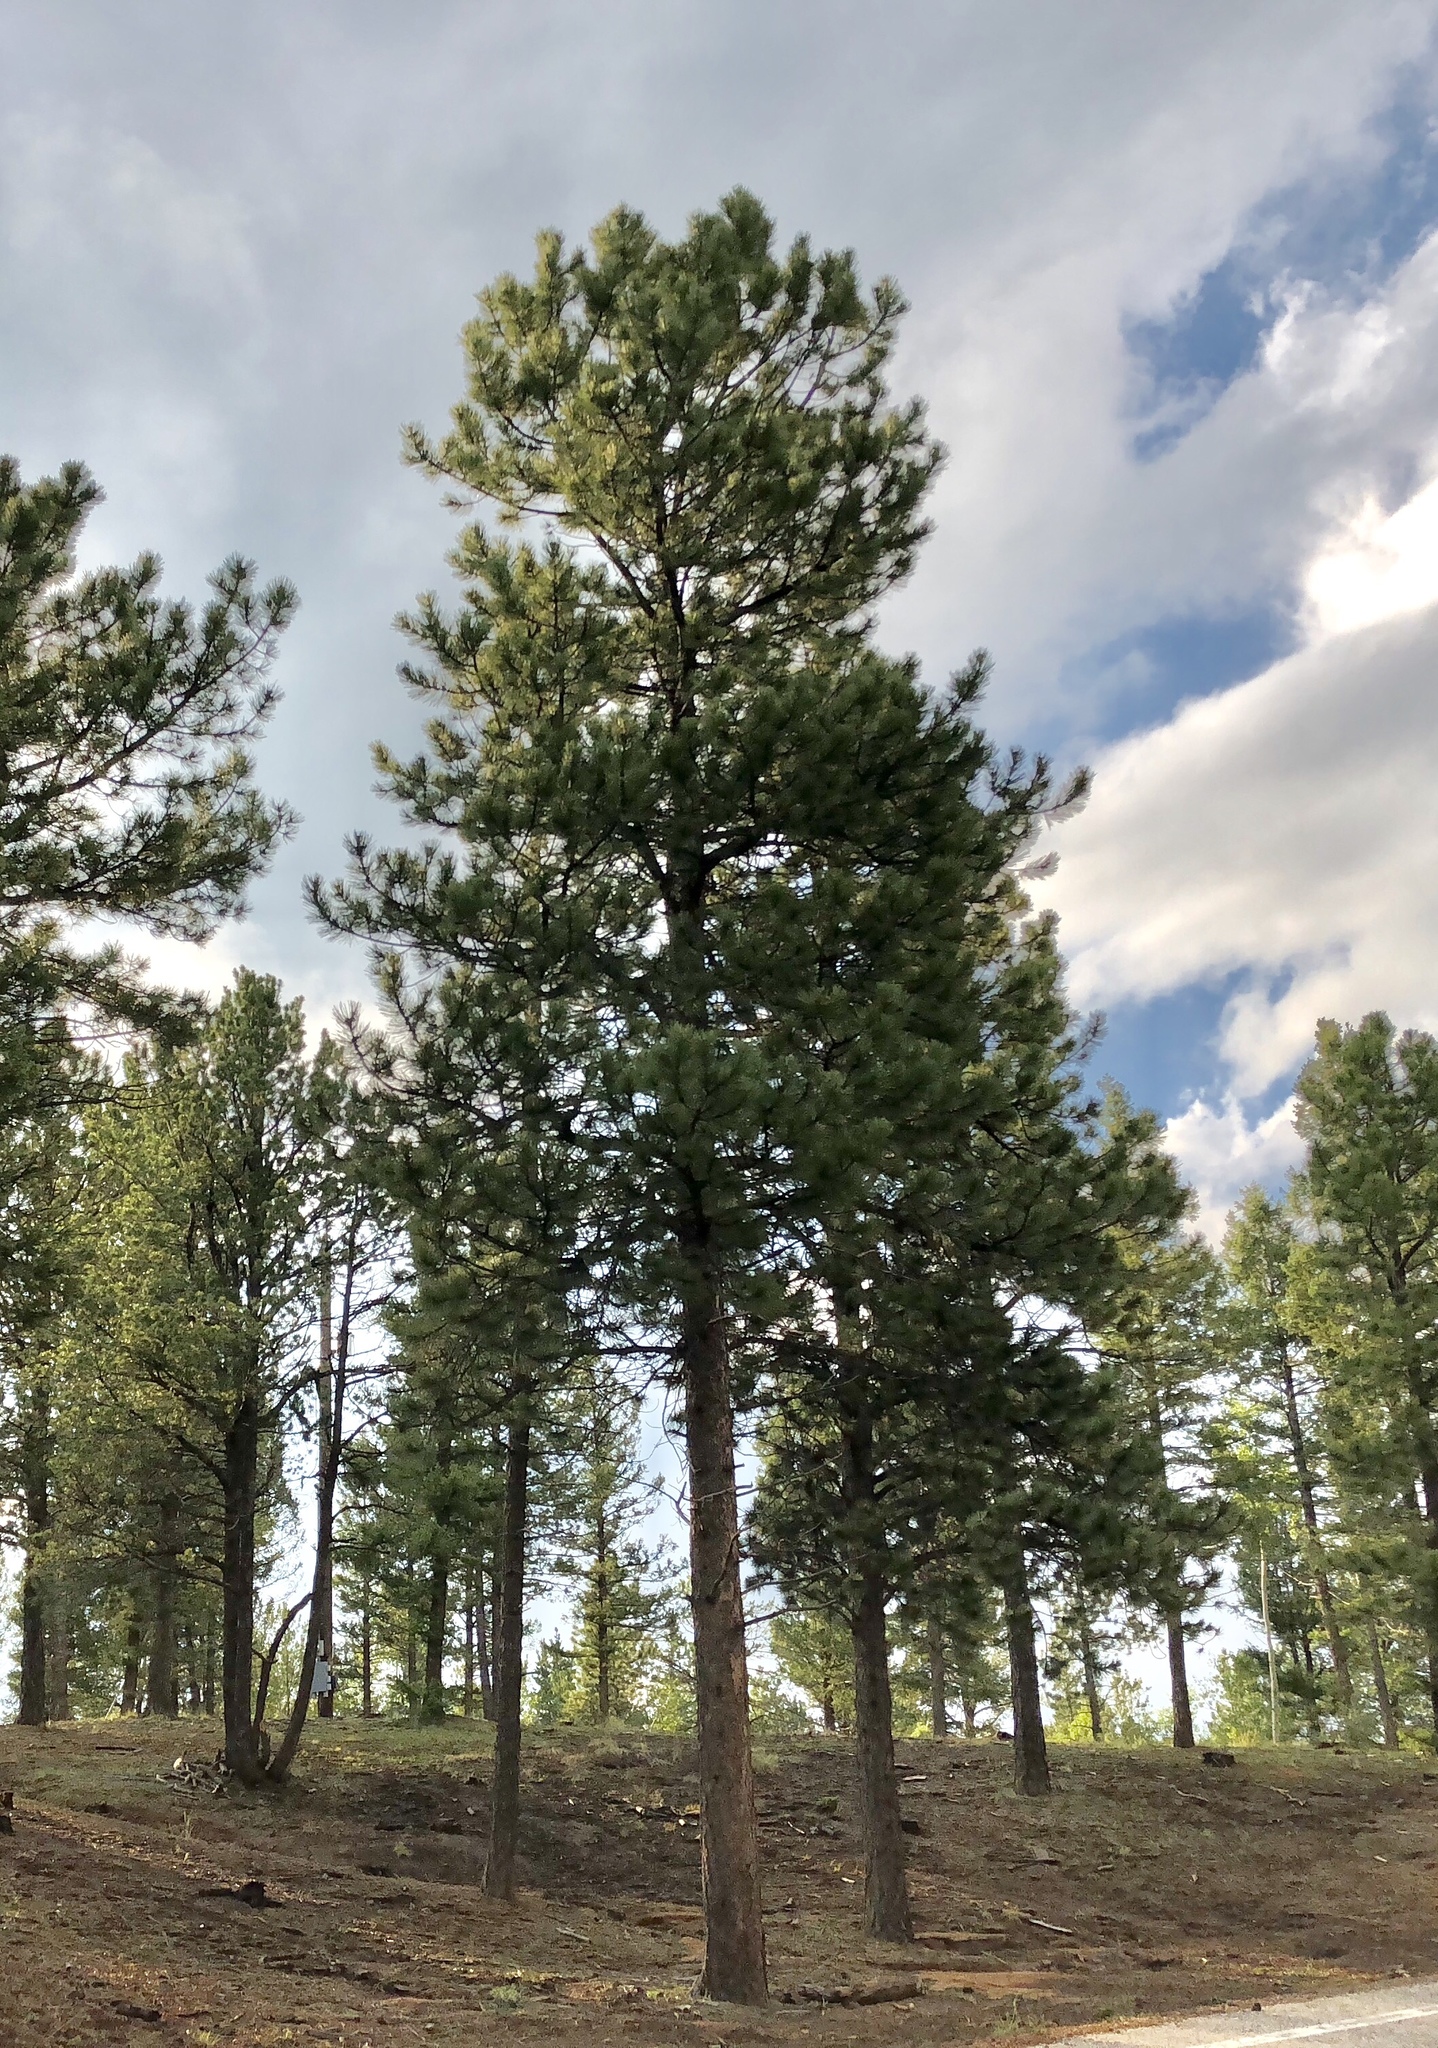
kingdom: Plantae
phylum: Tracheophyta
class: Pinopsida
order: Pinales
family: Pinaceae
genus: Pinus
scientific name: Pinus ponderosa
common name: Western yellow-pine
